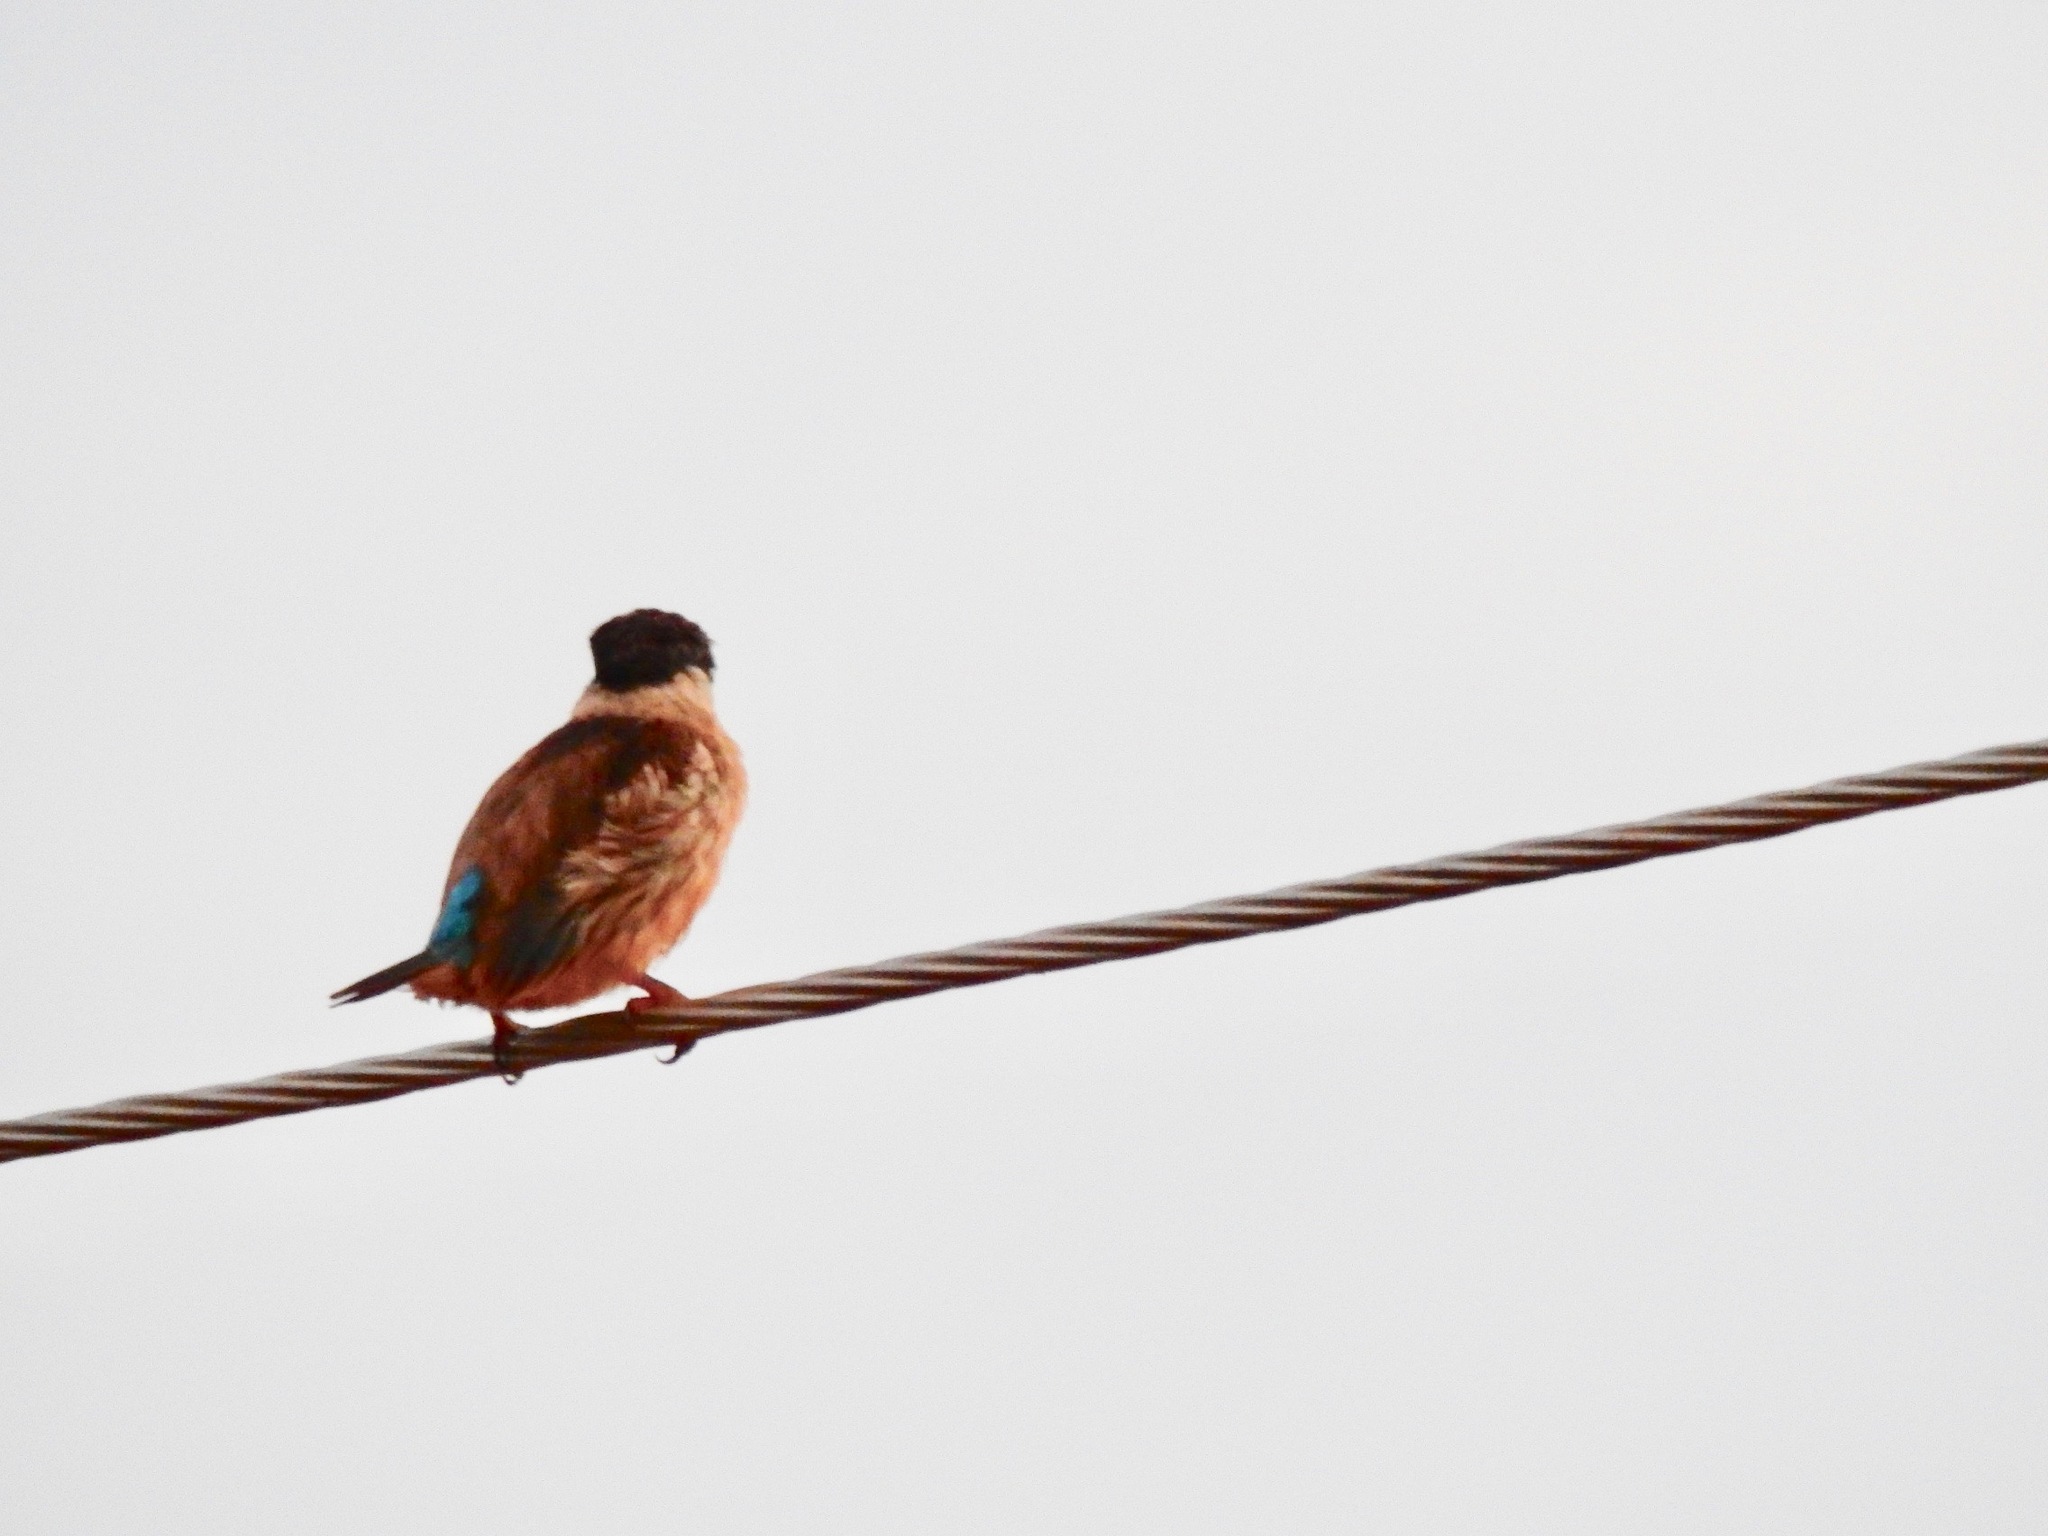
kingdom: Animalia
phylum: Chordata
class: Aves
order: Coraciiformes
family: Alcedinidae
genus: Halcyon
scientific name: Halcyon chelicuti
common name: Striped kingfisher
